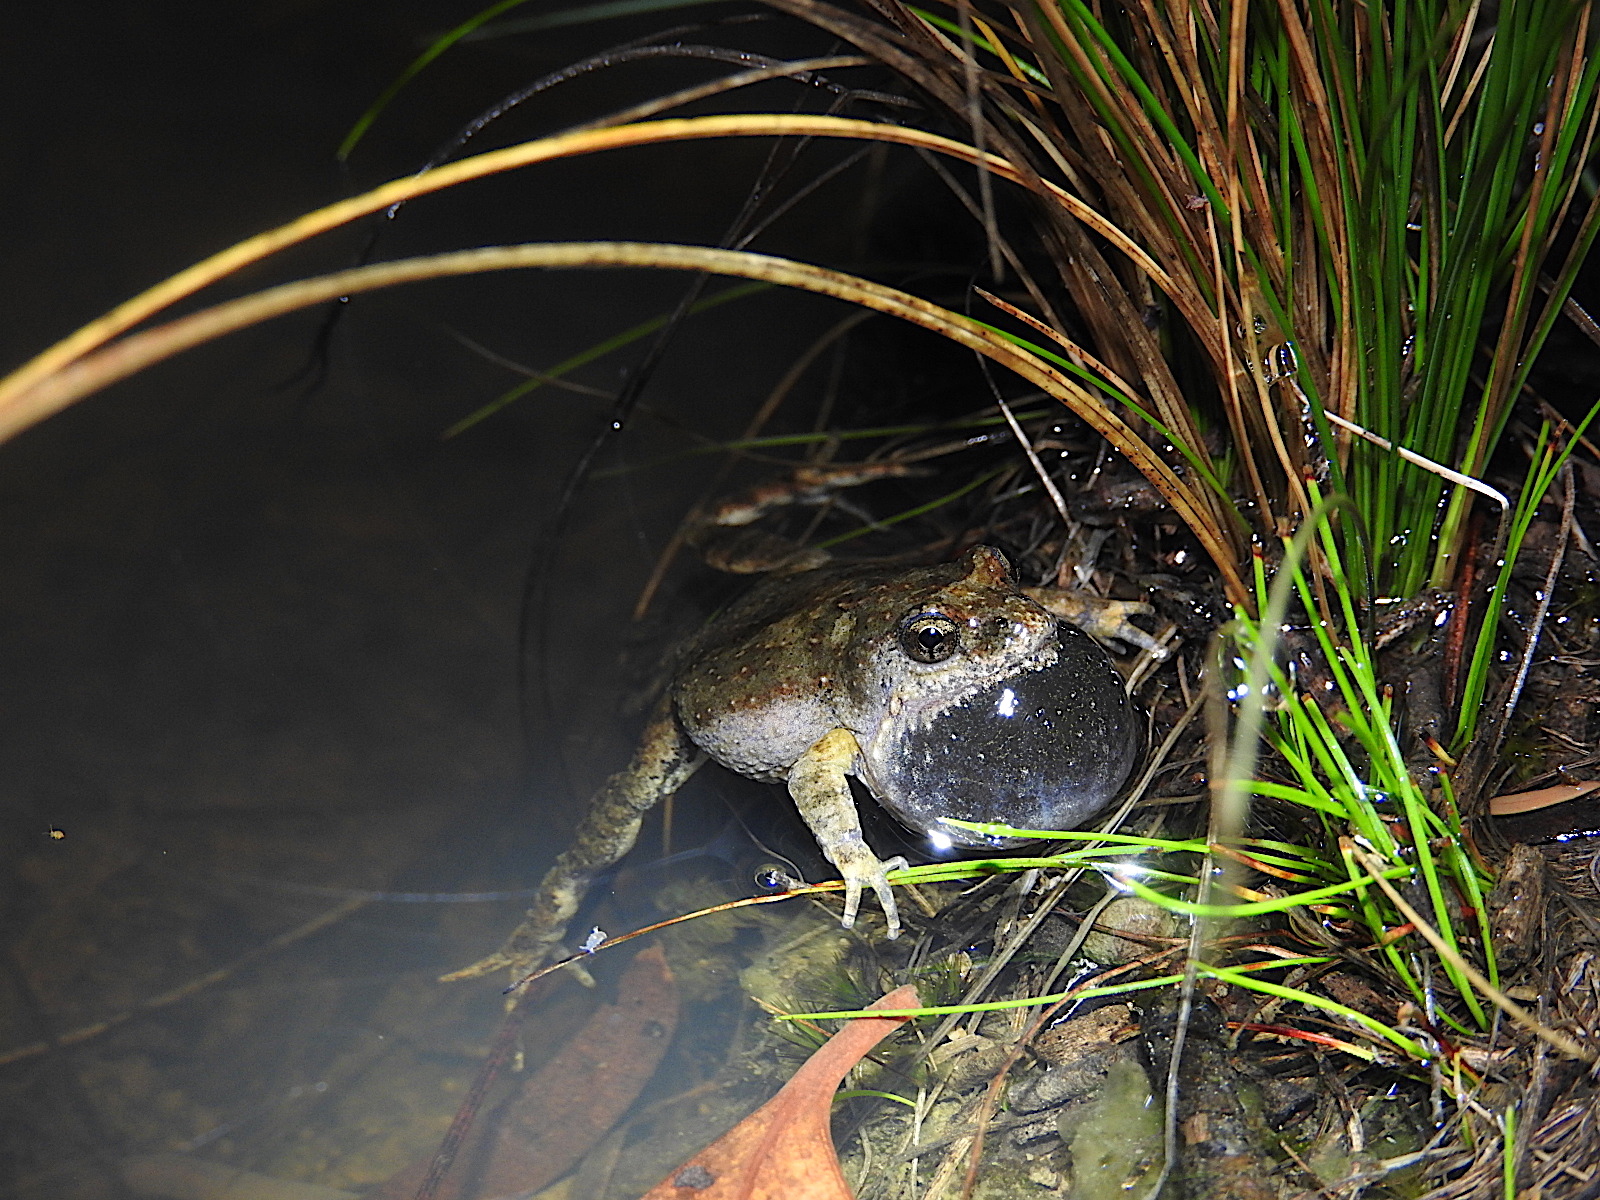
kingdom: Animalia
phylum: Chordata
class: Amphibia
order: Anura
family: Myobatrachidae
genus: Crinia
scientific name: Crinia signifera
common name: Brown froglet
